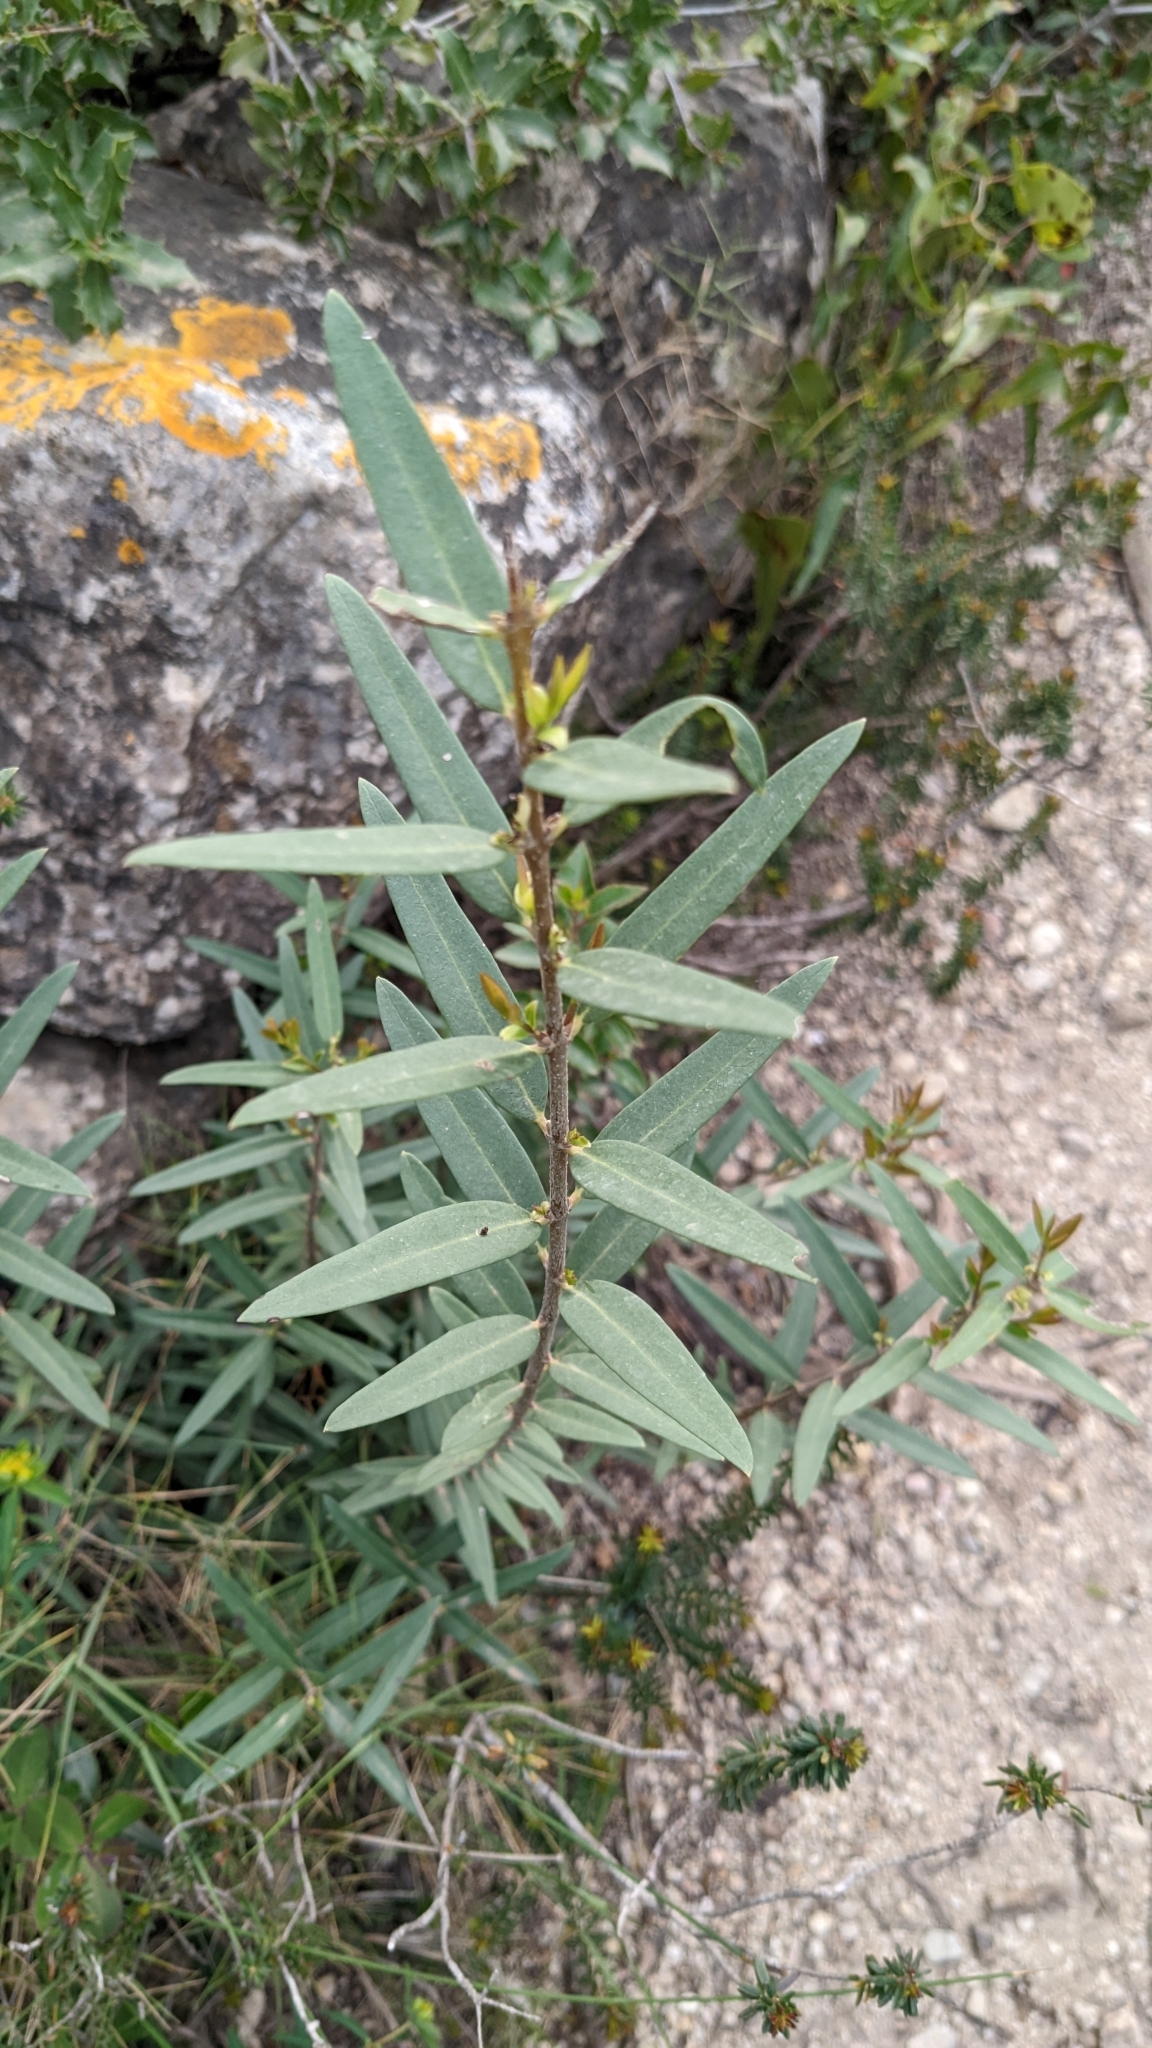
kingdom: Plantae
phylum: Tracheophyta
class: Magnoliopsida
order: Lamiales
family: Oleaceae
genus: Phillyrea
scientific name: Phillyrea angustifolia
